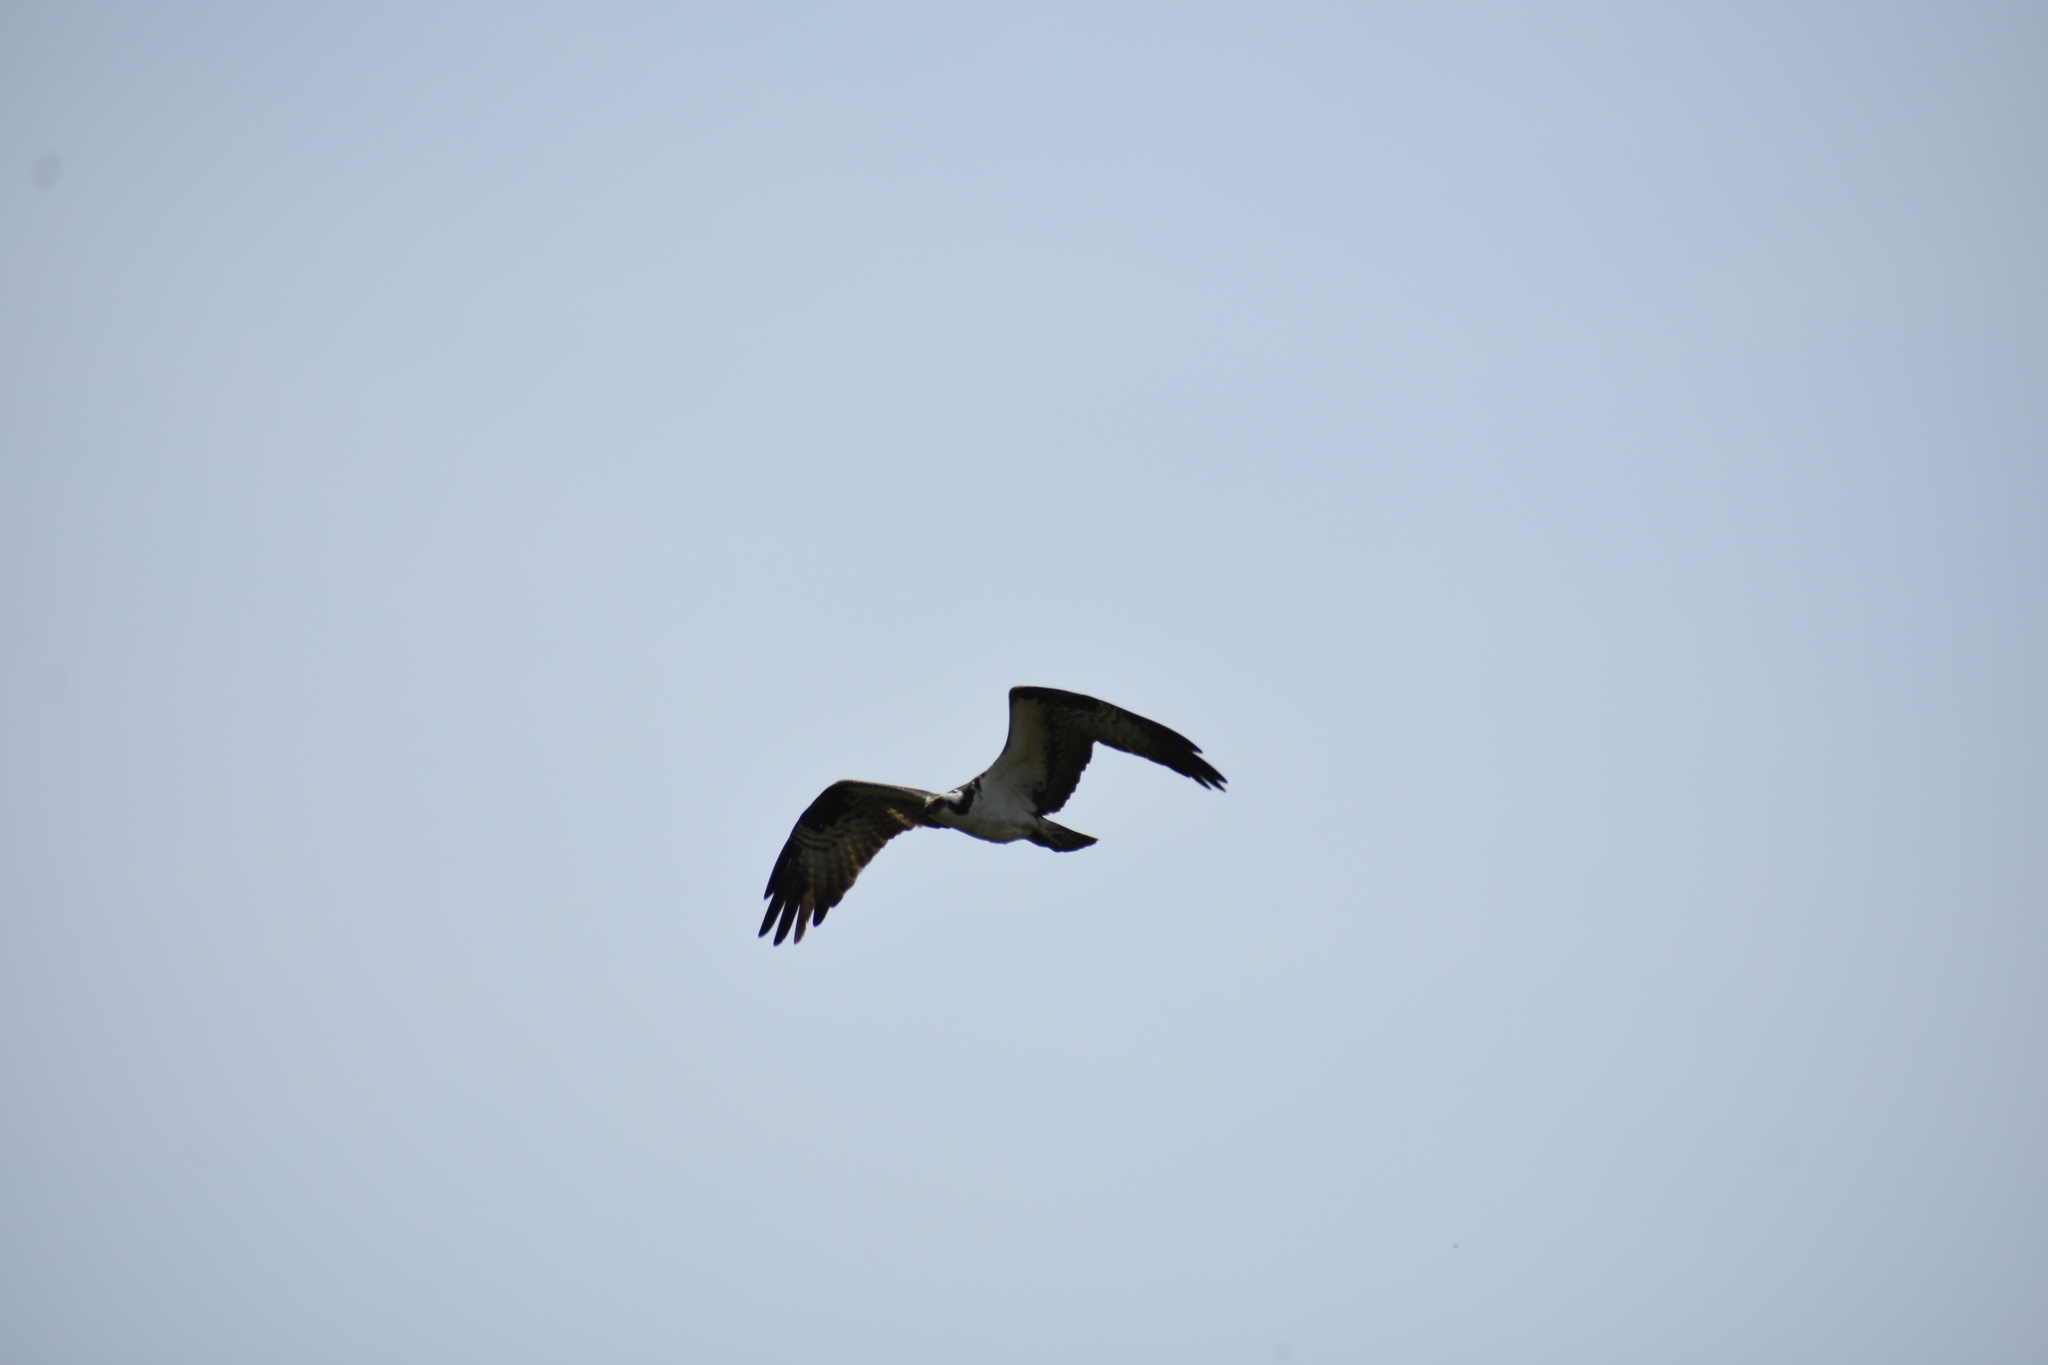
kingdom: Animalia
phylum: Chordata
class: Aves
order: Accipitriformes
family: Pandionidae
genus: Pandion
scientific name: Pandion haliaetus
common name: Osprey
